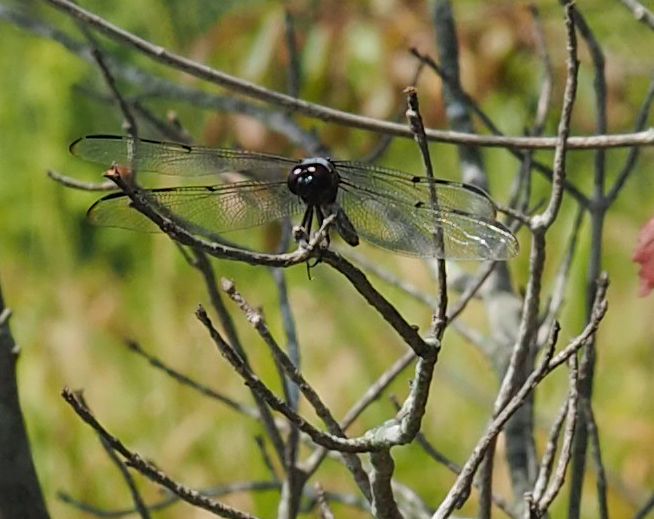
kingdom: Animalia
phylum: Arthropoda
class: Insecta
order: Odonata
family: Libellulidae
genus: Libellula
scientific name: Libellula axilena
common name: Bar-winged skimmer
